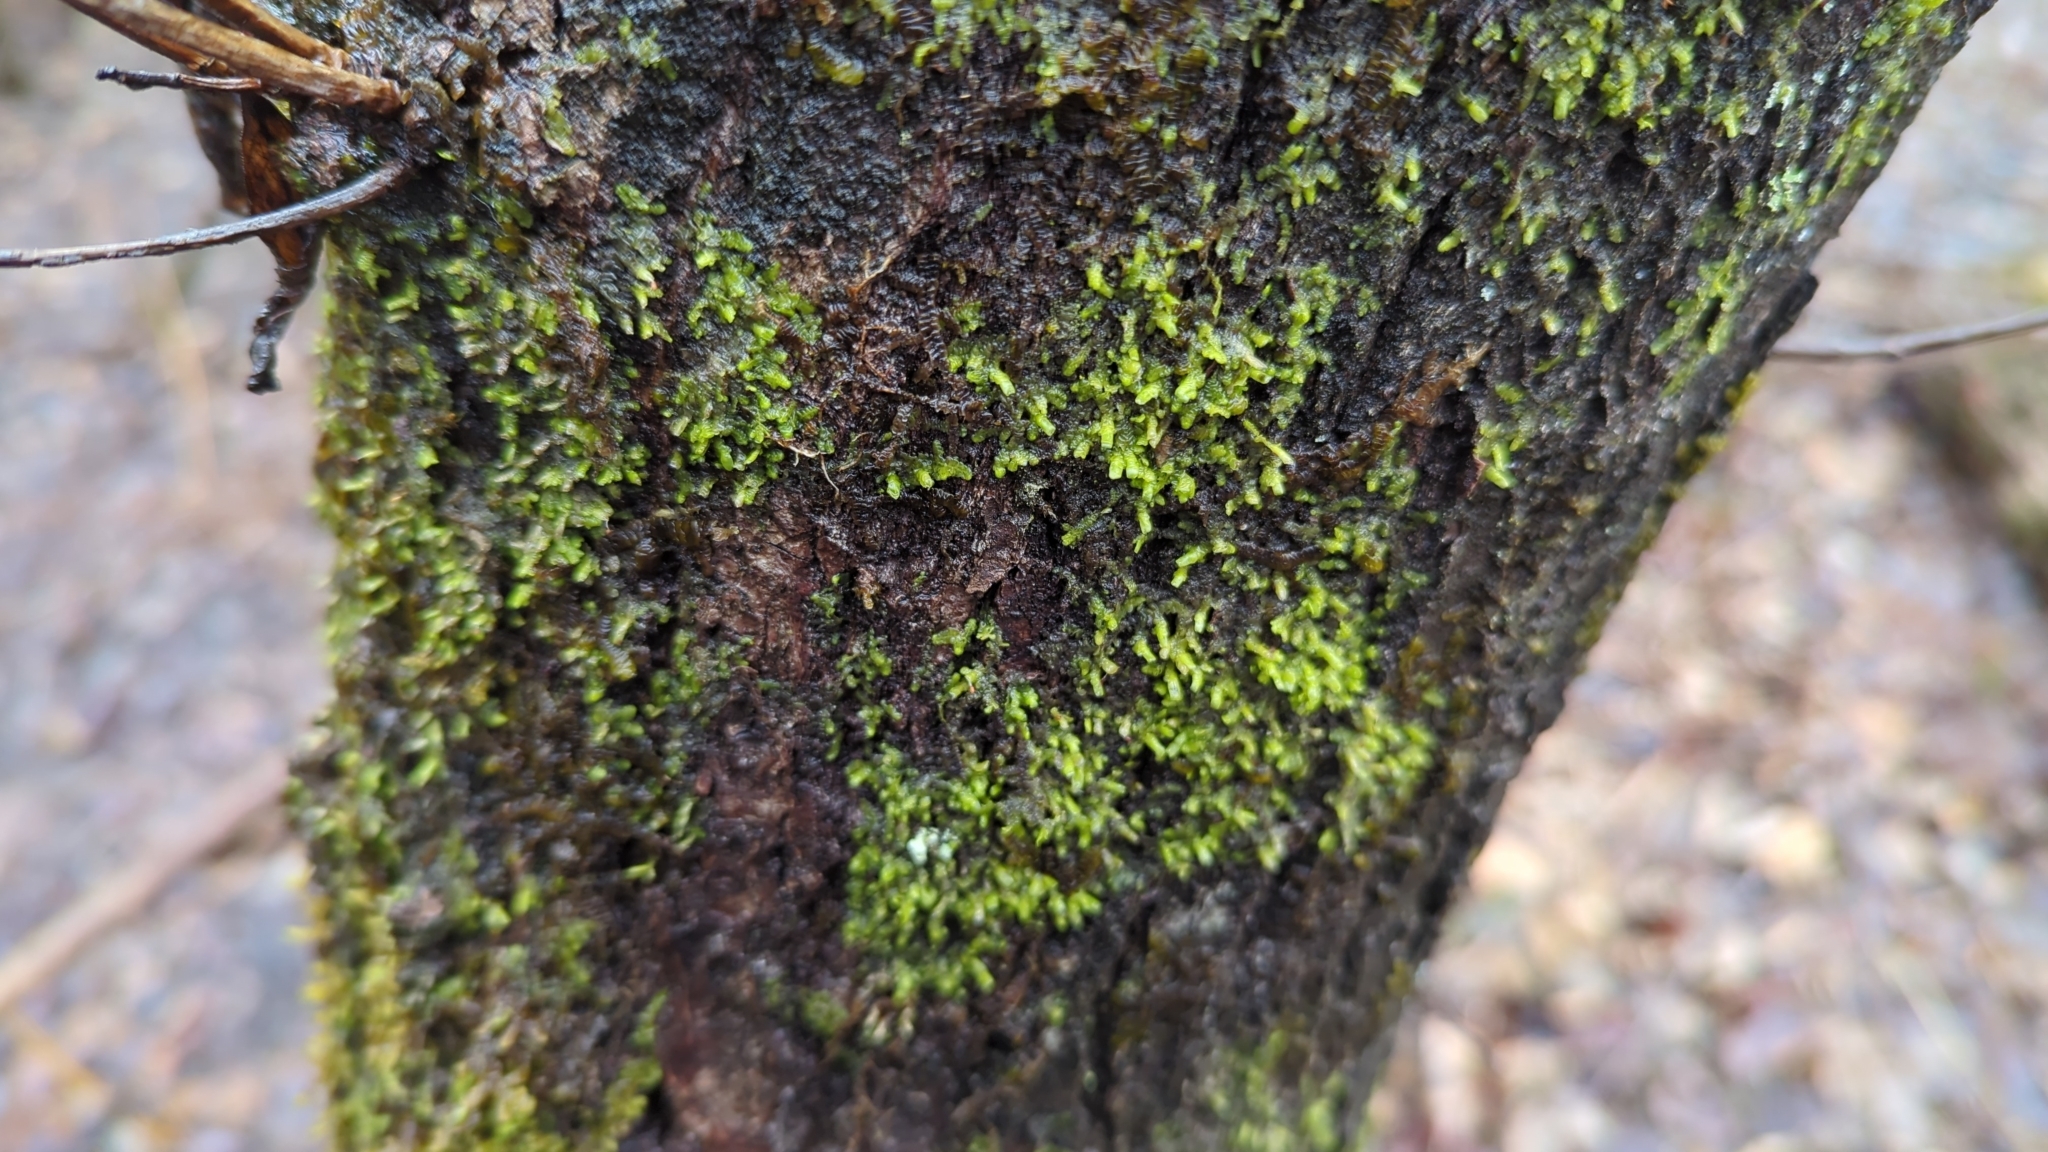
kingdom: Plantae
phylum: Marchantiophyta
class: Jungermanniopsida
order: Porellales
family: Radulaceae
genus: Radula
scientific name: Radula complanata
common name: Flat-leaved scalewort
